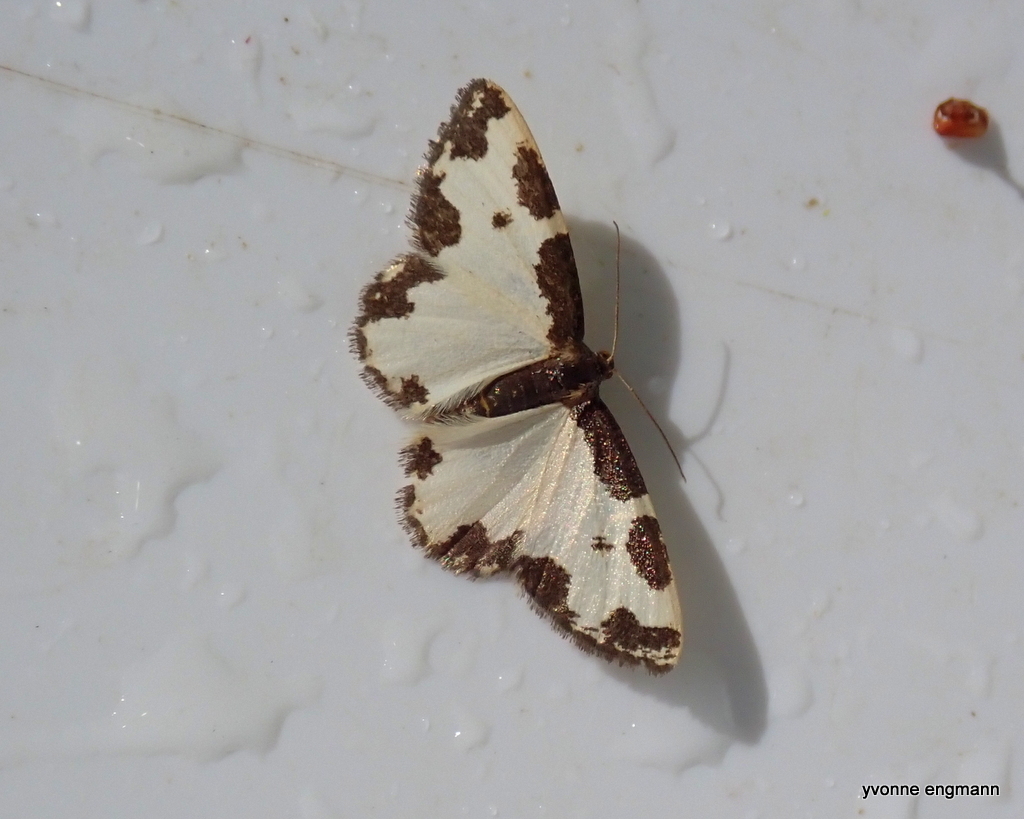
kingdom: Animalia
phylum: Arthropoda
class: Insecta
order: Lepidoptera
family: Geometridae
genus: Lomaspilis
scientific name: Lomaspilis marginata
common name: Clouded border
